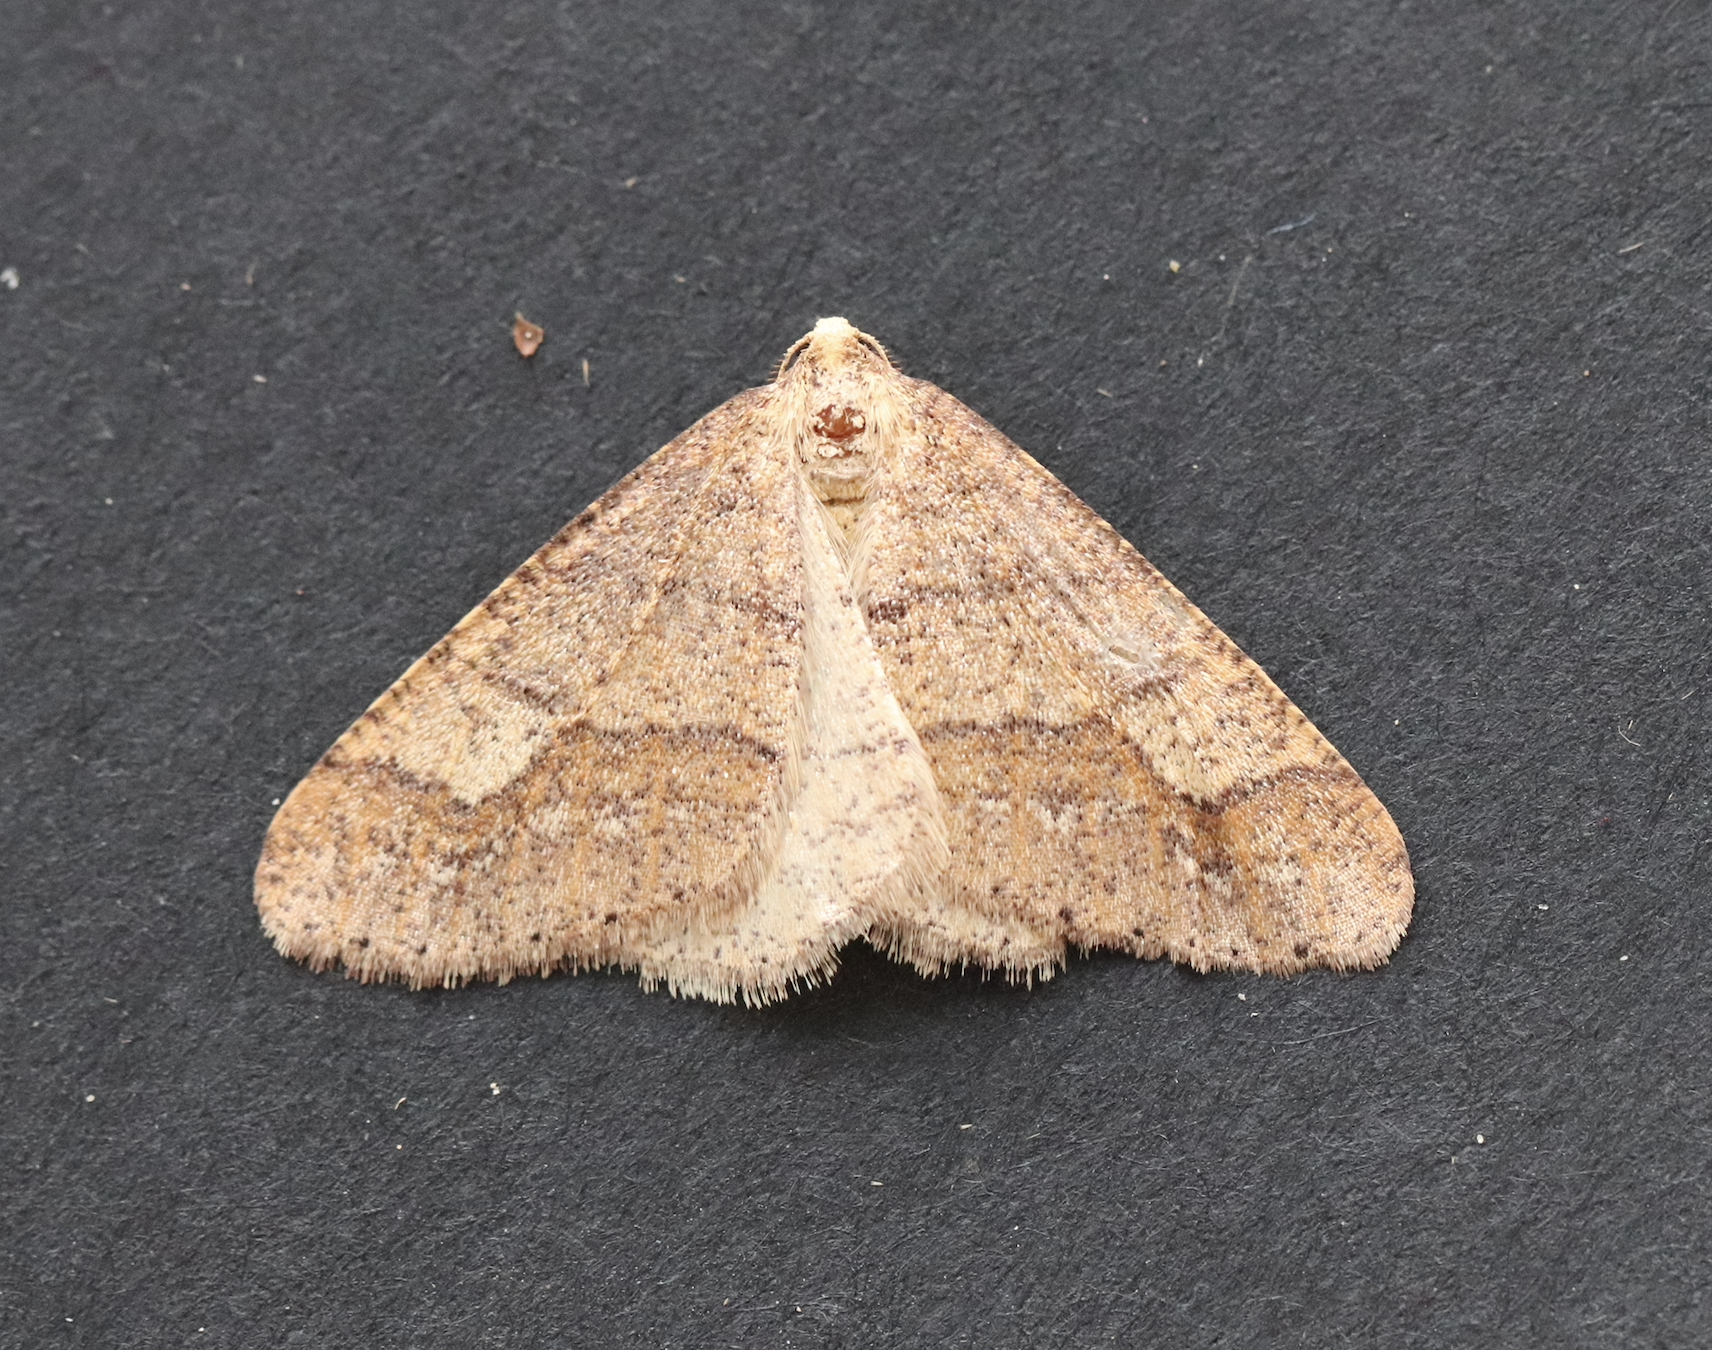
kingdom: Animalia
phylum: Arthropoda
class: Insecta
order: Lepidoptera
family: Geometridae
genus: Agriopis
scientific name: Agriopis marginaria
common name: Dotted border
